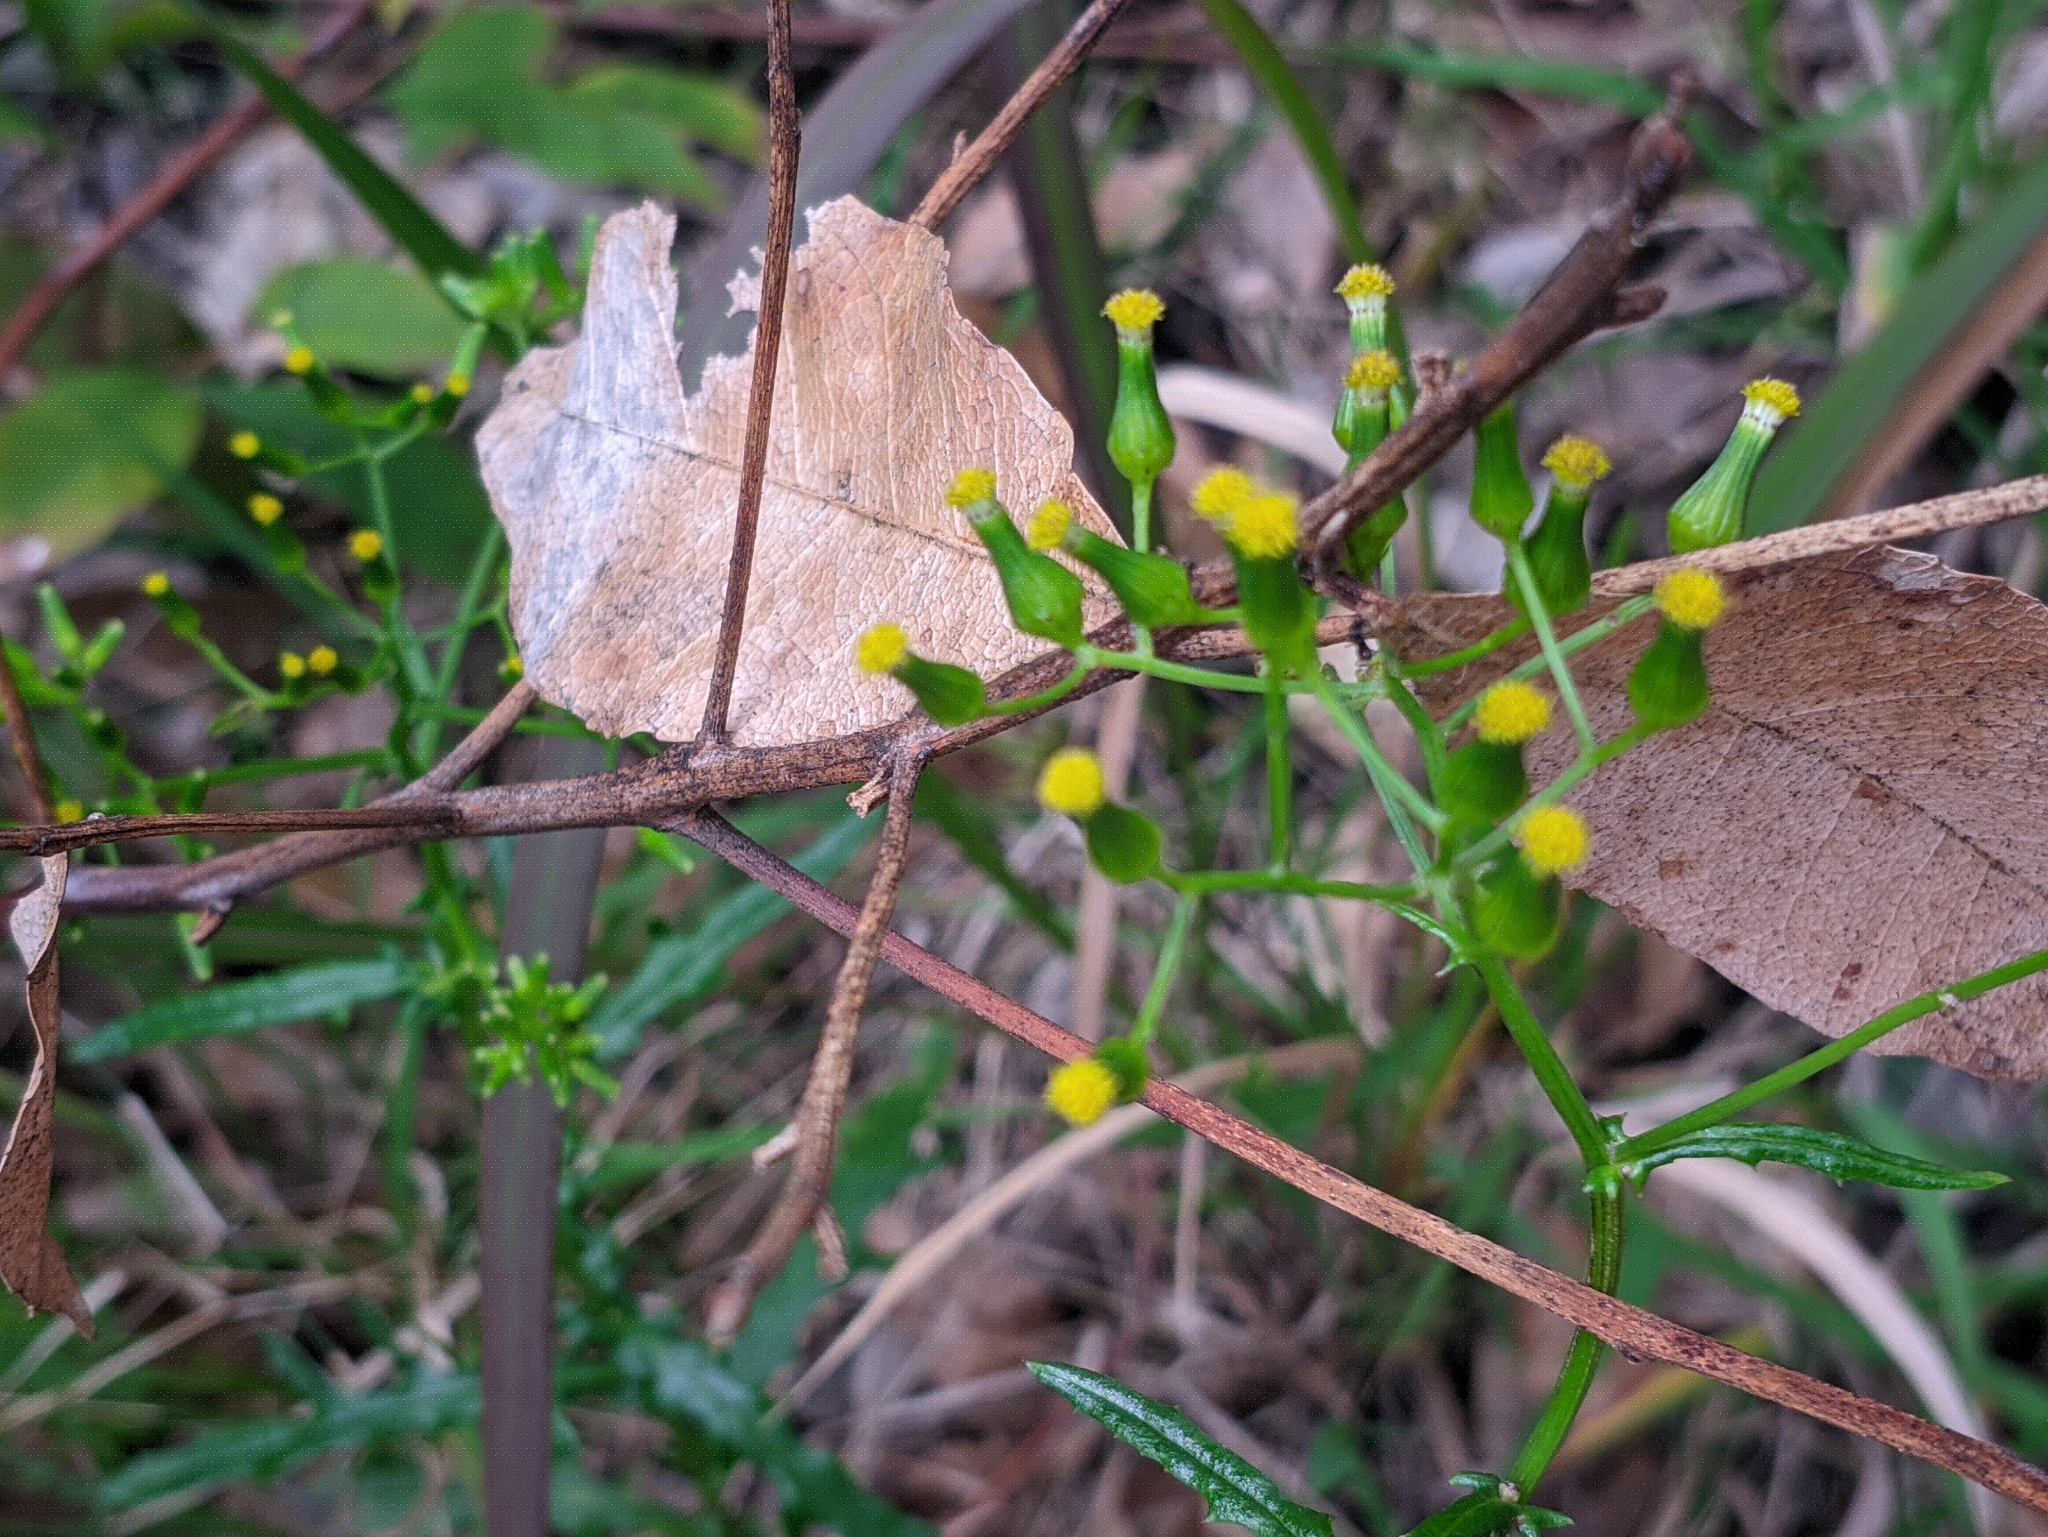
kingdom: Plantae
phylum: Tracheophyta
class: Magnoliopsida
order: Asterales
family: Asteraceae
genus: Senecio
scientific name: Senecio hispidulus
